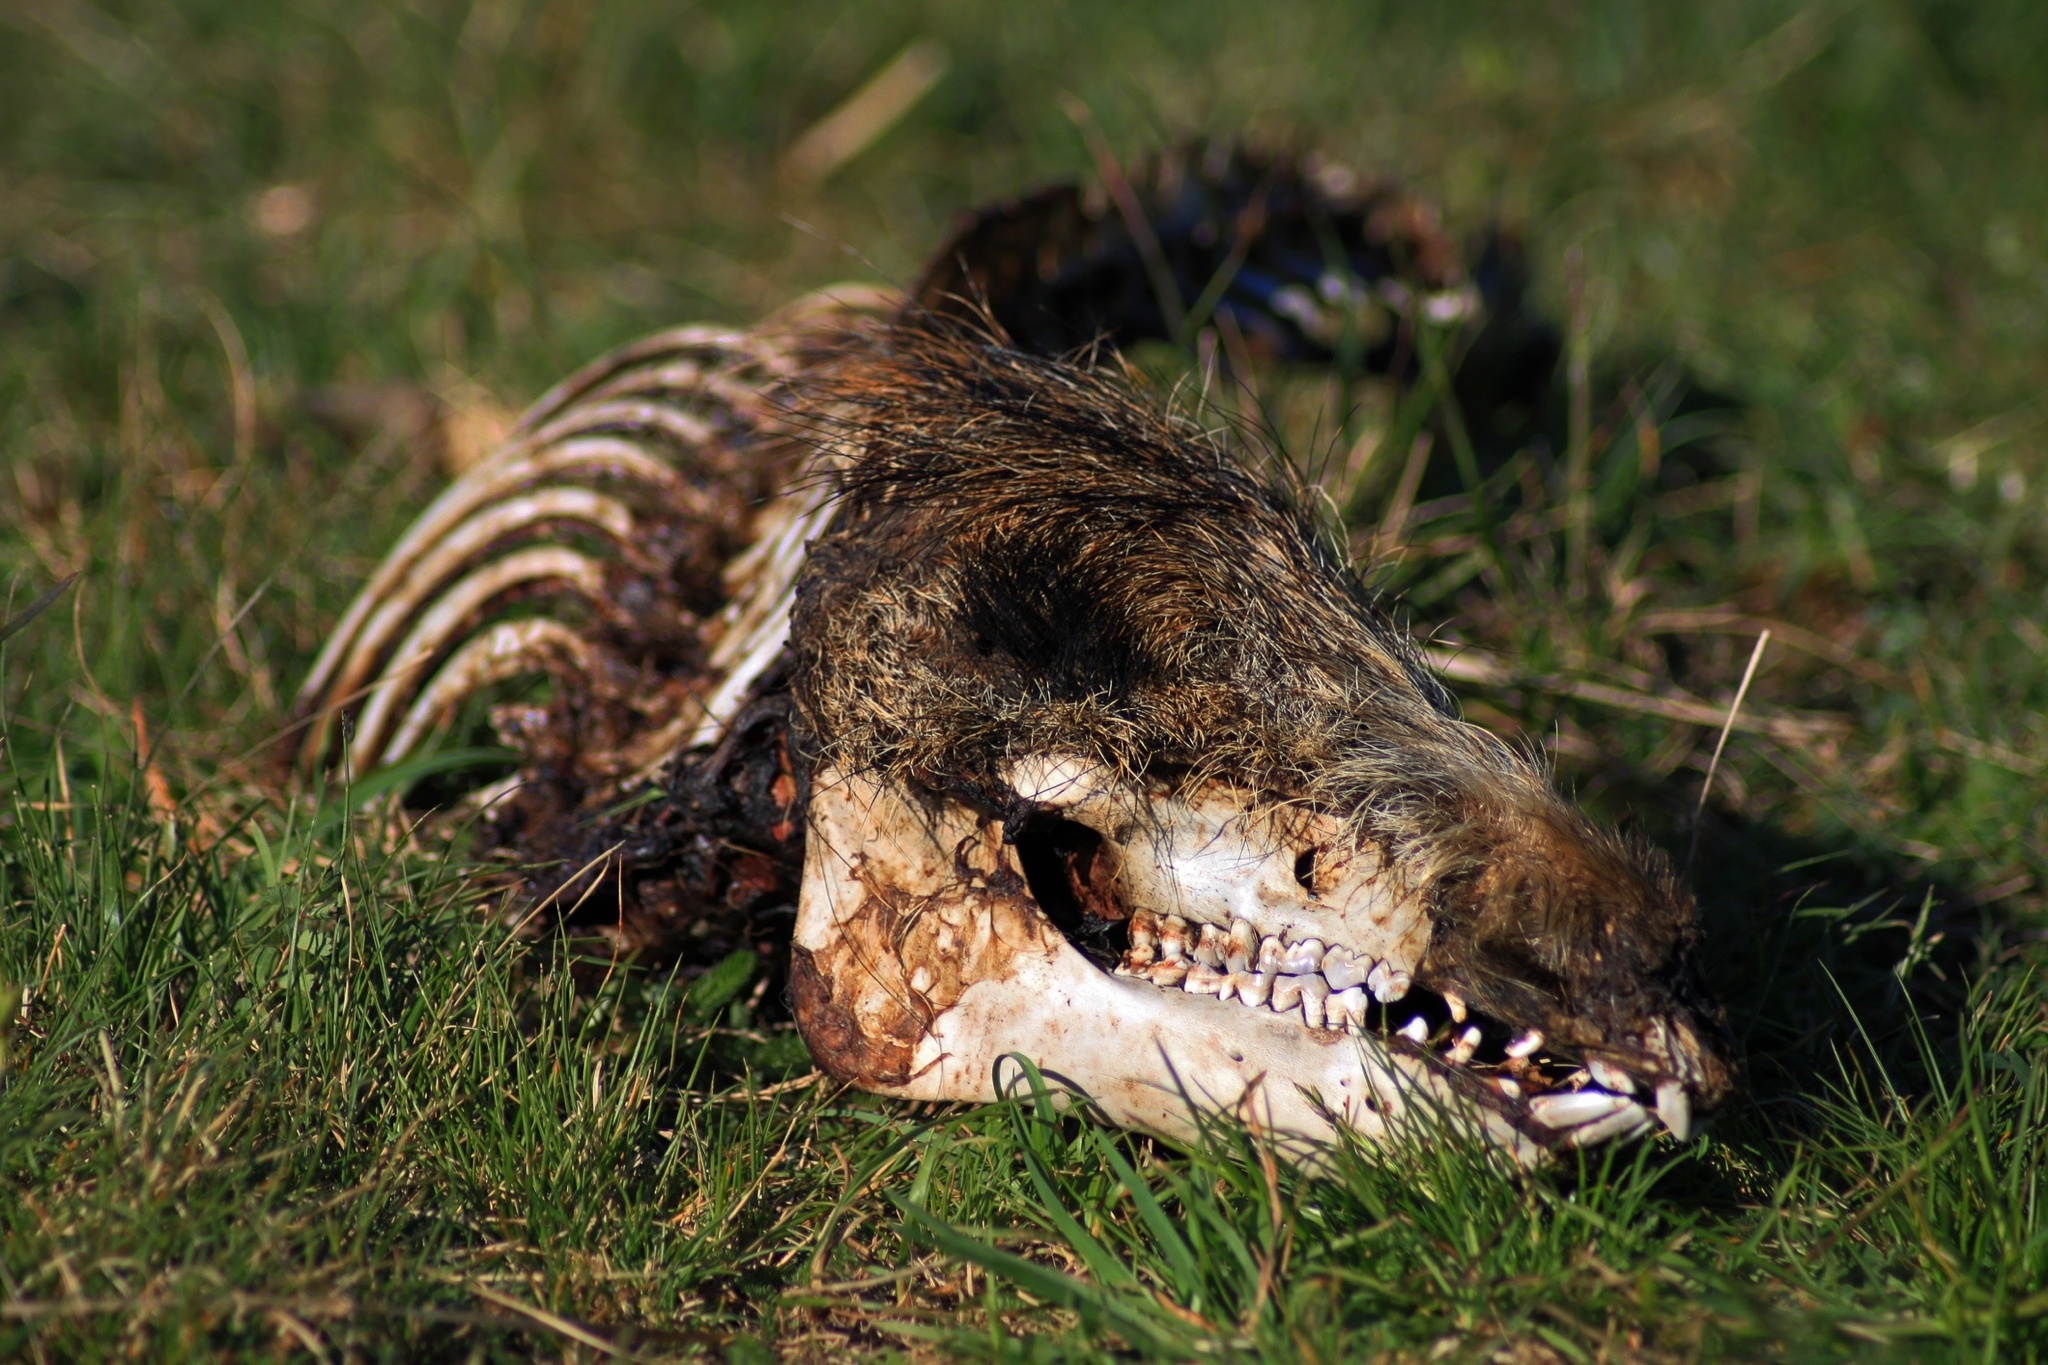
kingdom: Animalia
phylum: Chordata
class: Mammalia
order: Artiodactyla
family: Suidae
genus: Sus
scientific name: Sus scrofa
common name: Wild boar
